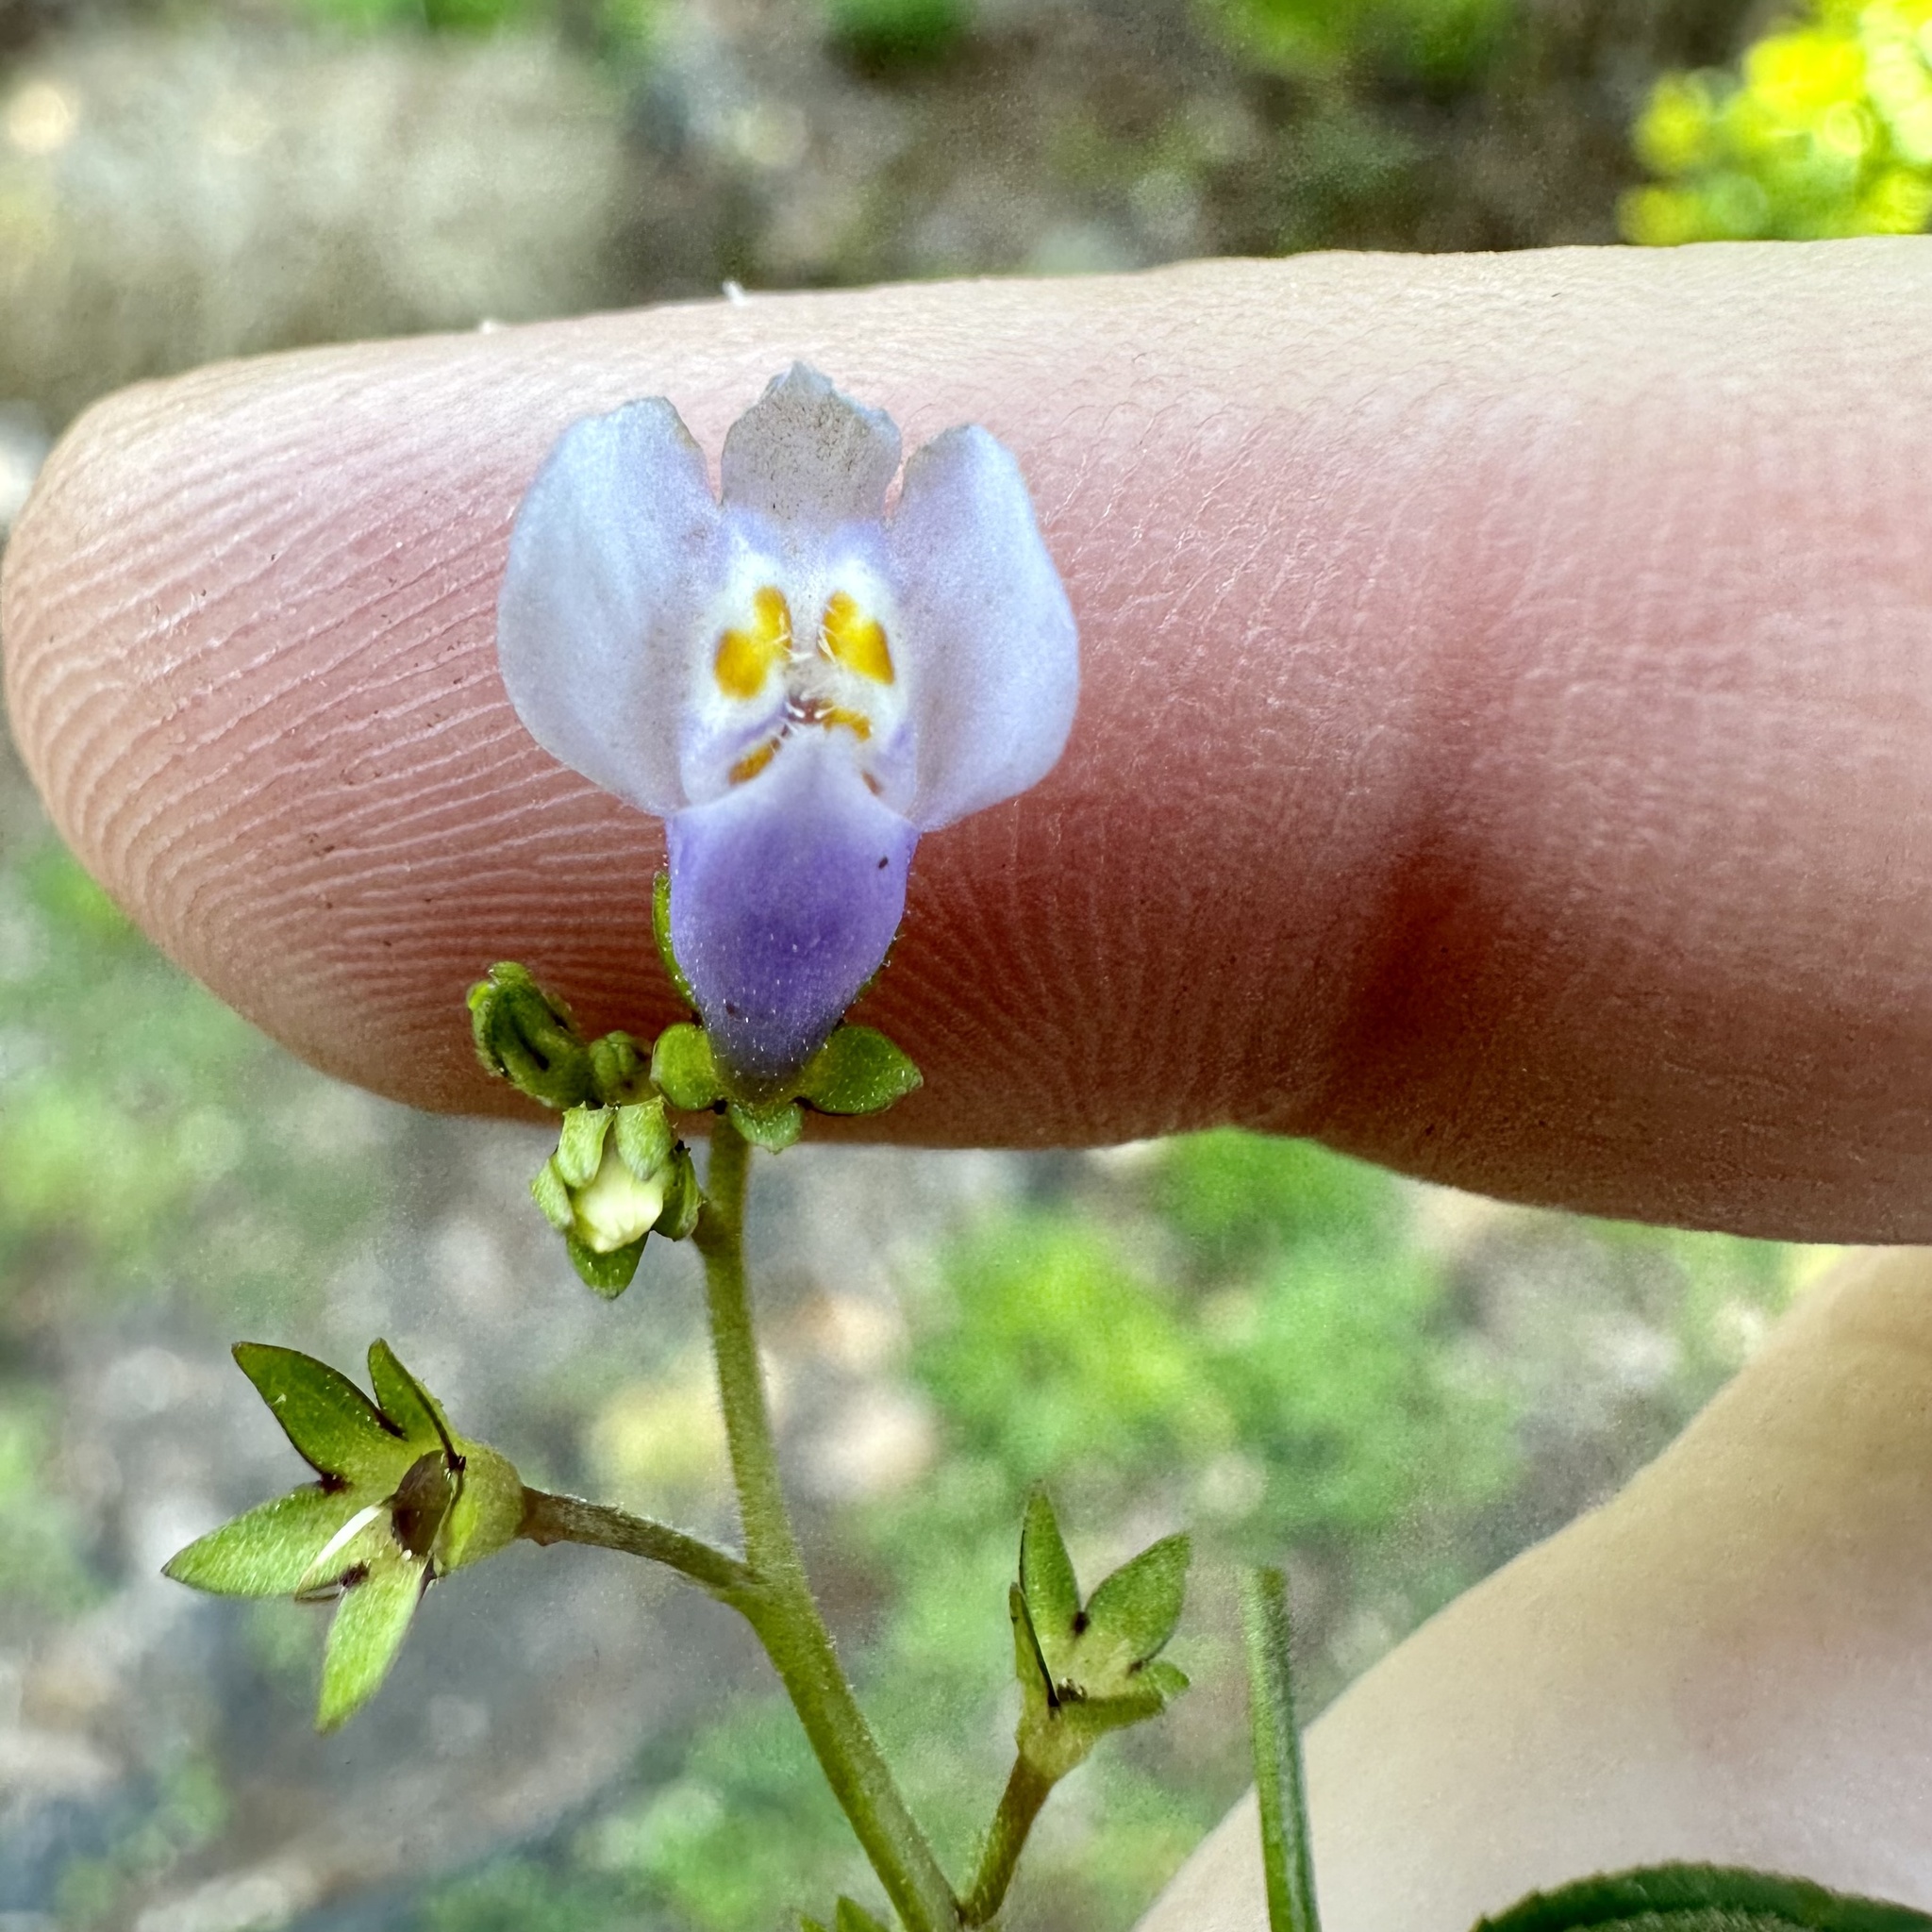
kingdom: Plantae
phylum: Tracheophyta
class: Magnoliopsida
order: Lamiales
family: Mazaceae
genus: Mazus
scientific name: Mazus pumilus
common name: Japanese mazus
